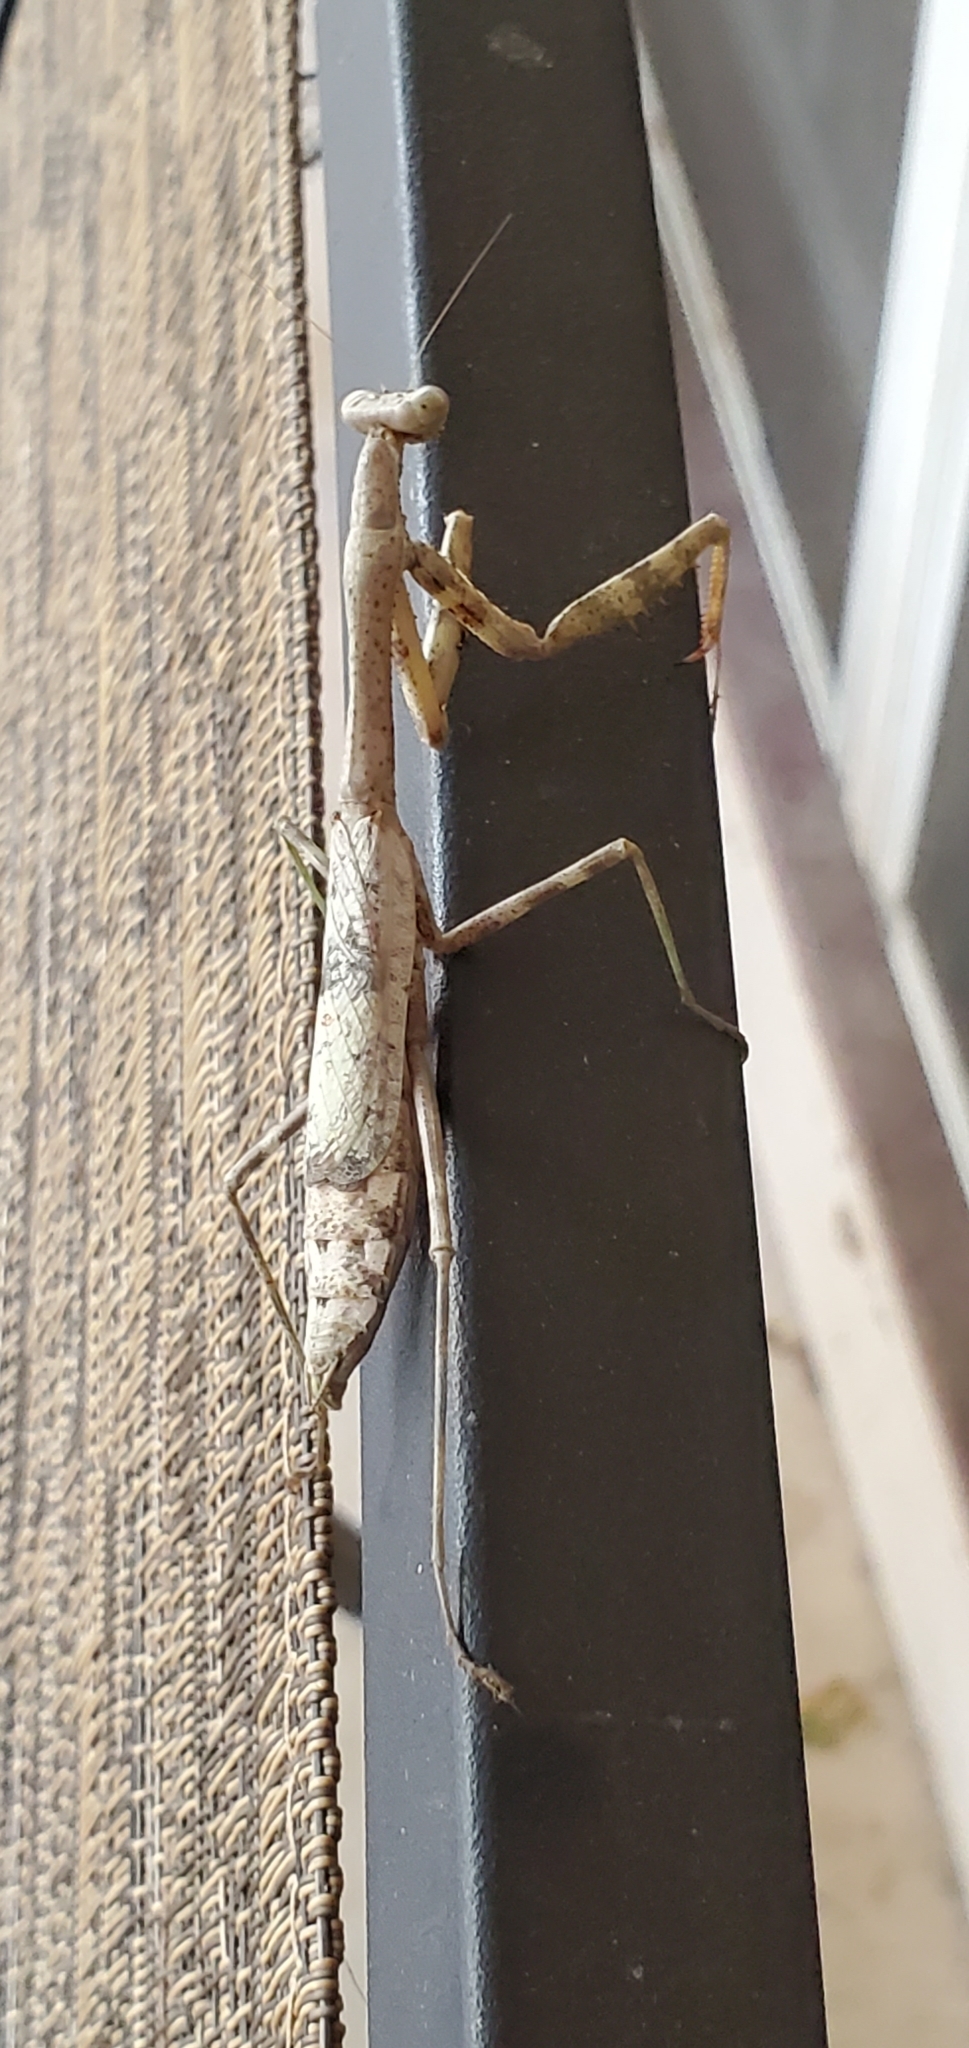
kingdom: Animalia
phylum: Arthropoda
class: Insecta
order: Mantodea
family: Mantidae
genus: Stagmomantis
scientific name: Stagmomantis carolina
